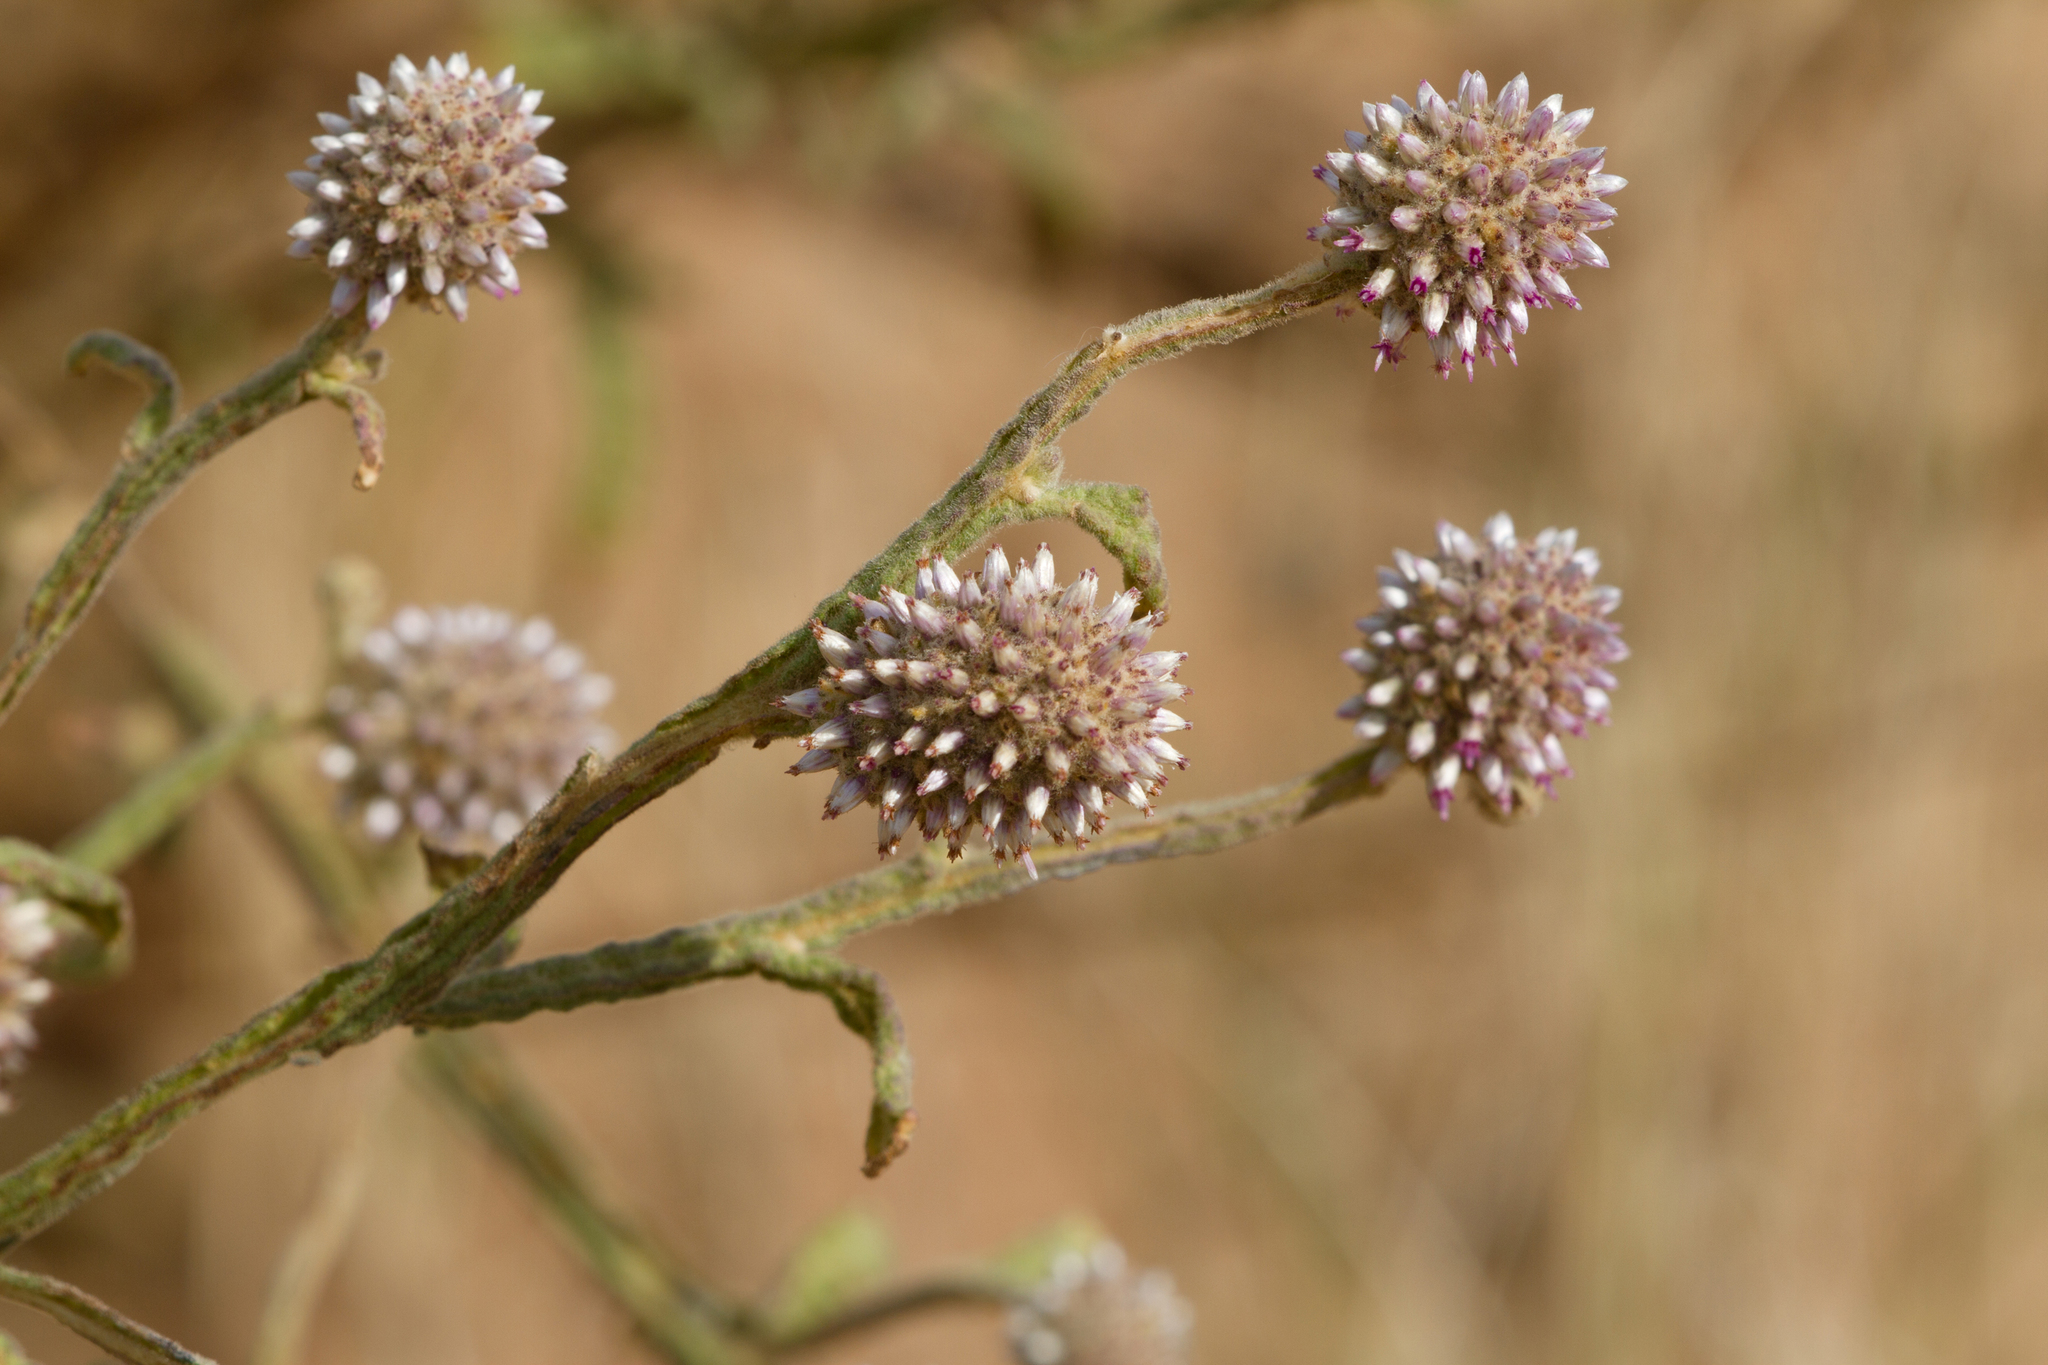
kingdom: Plantae
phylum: Tracheophyta
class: Magnoliopsida
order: Asterales
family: Asteraceae
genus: Pterocaulon
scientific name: Pterocaulon sphacelatum
